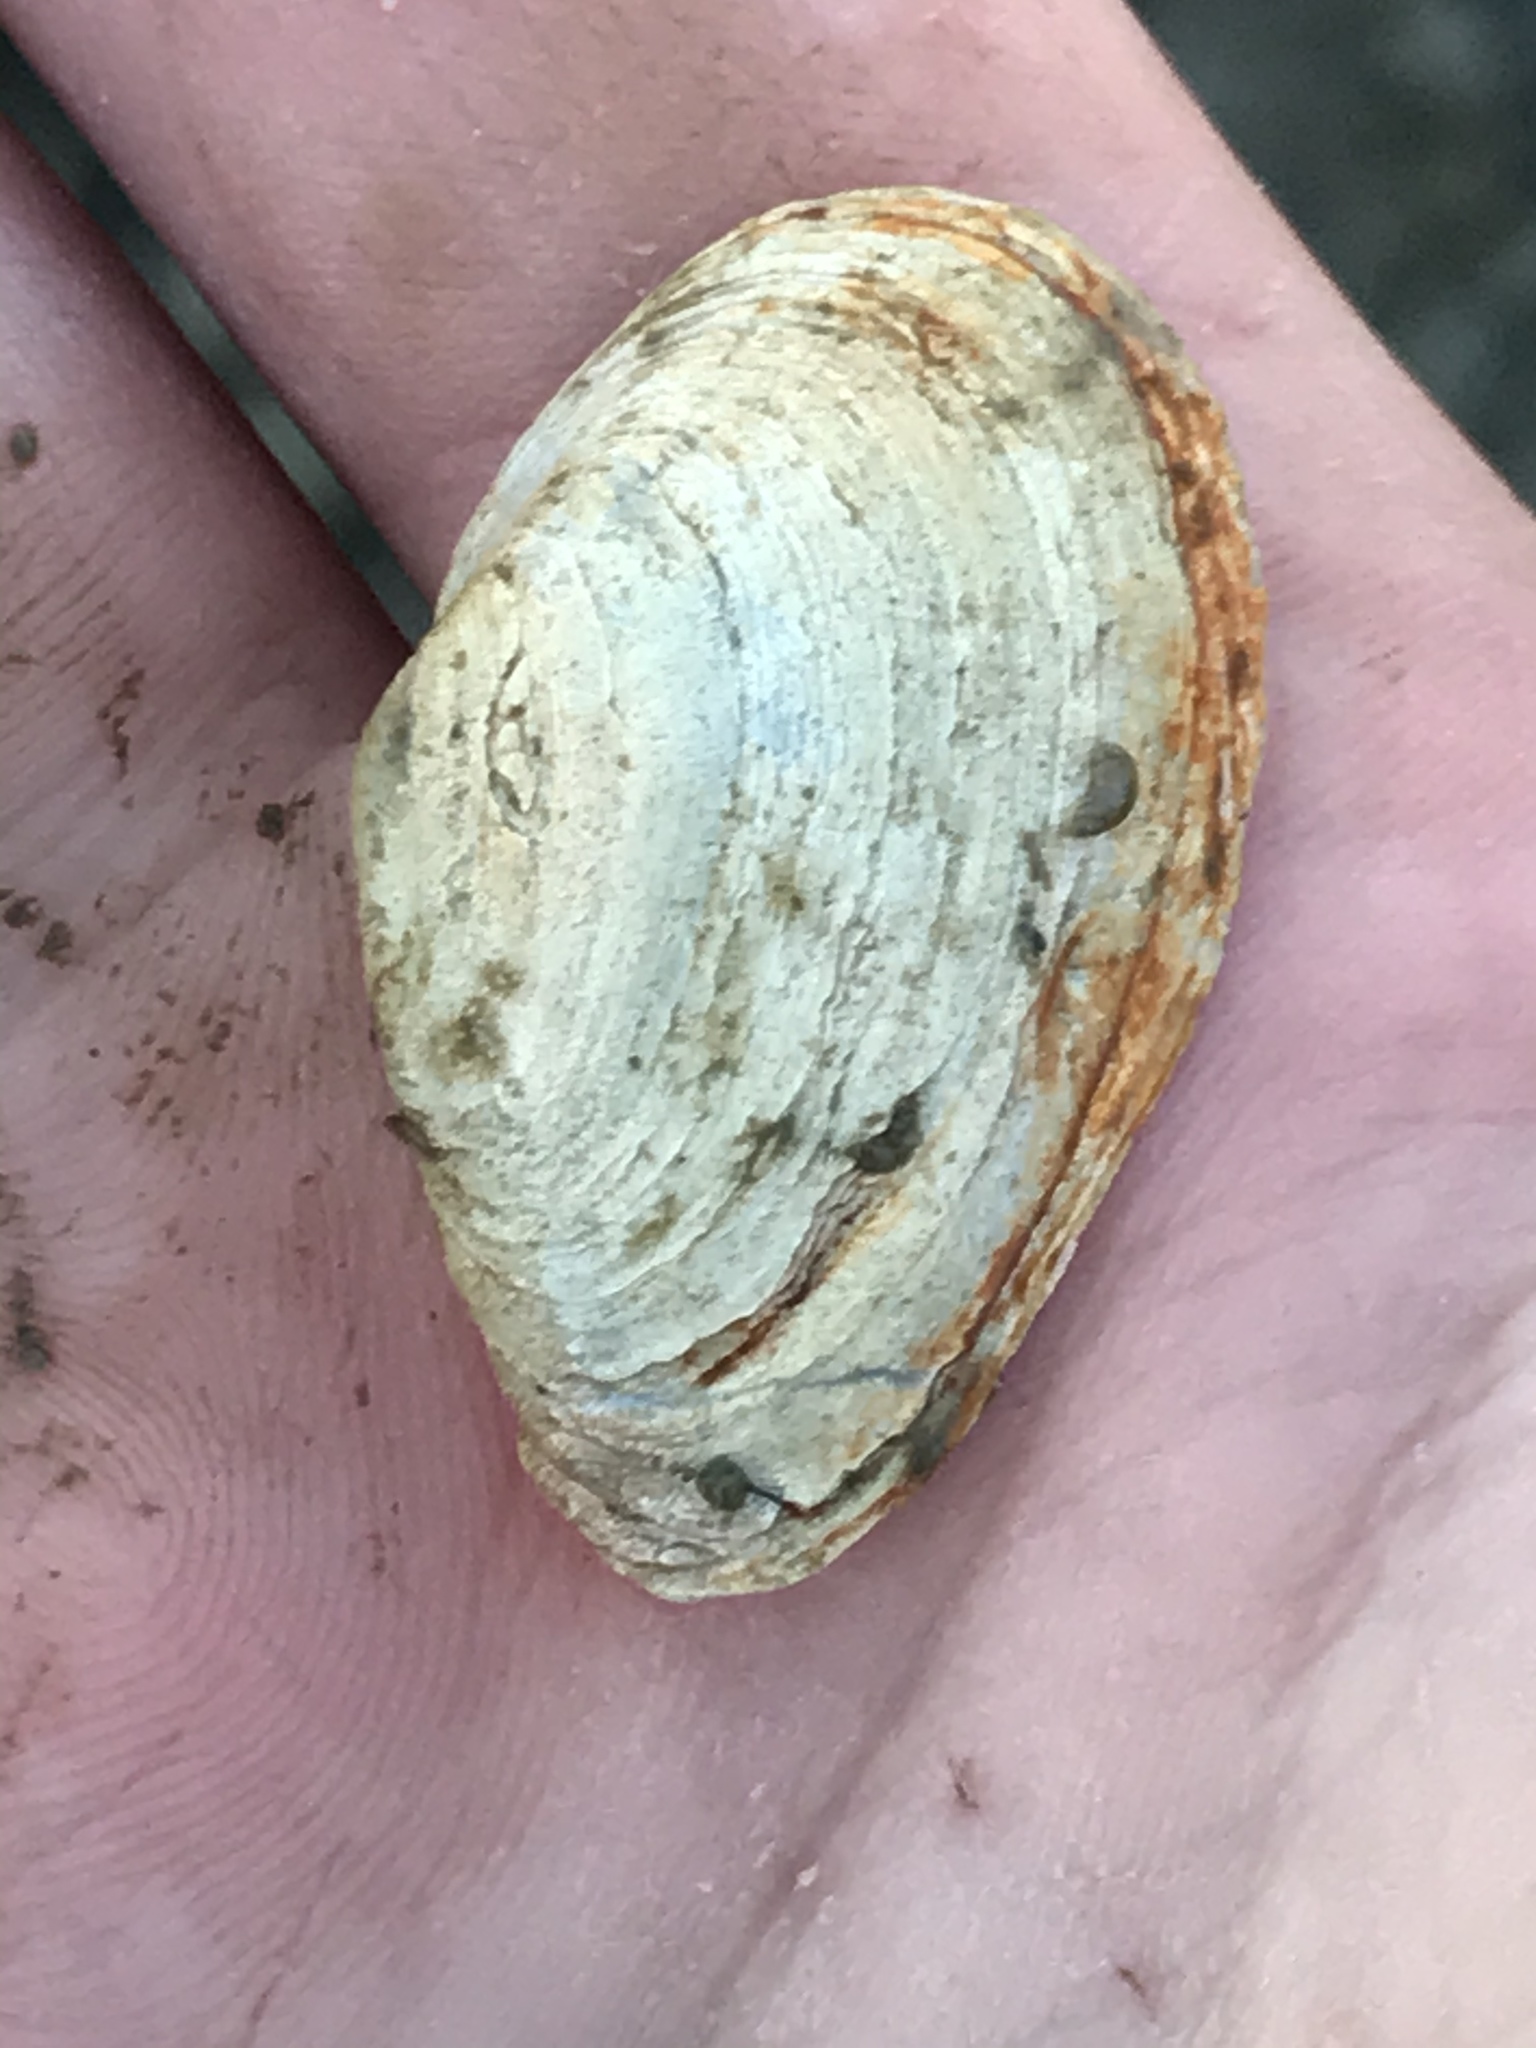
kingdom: Animalia
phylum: Mollusca
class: Bivalvia
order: Myida
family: Myidae
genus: Mya
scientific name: Mya arenaria
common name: Soft-shelled clam
